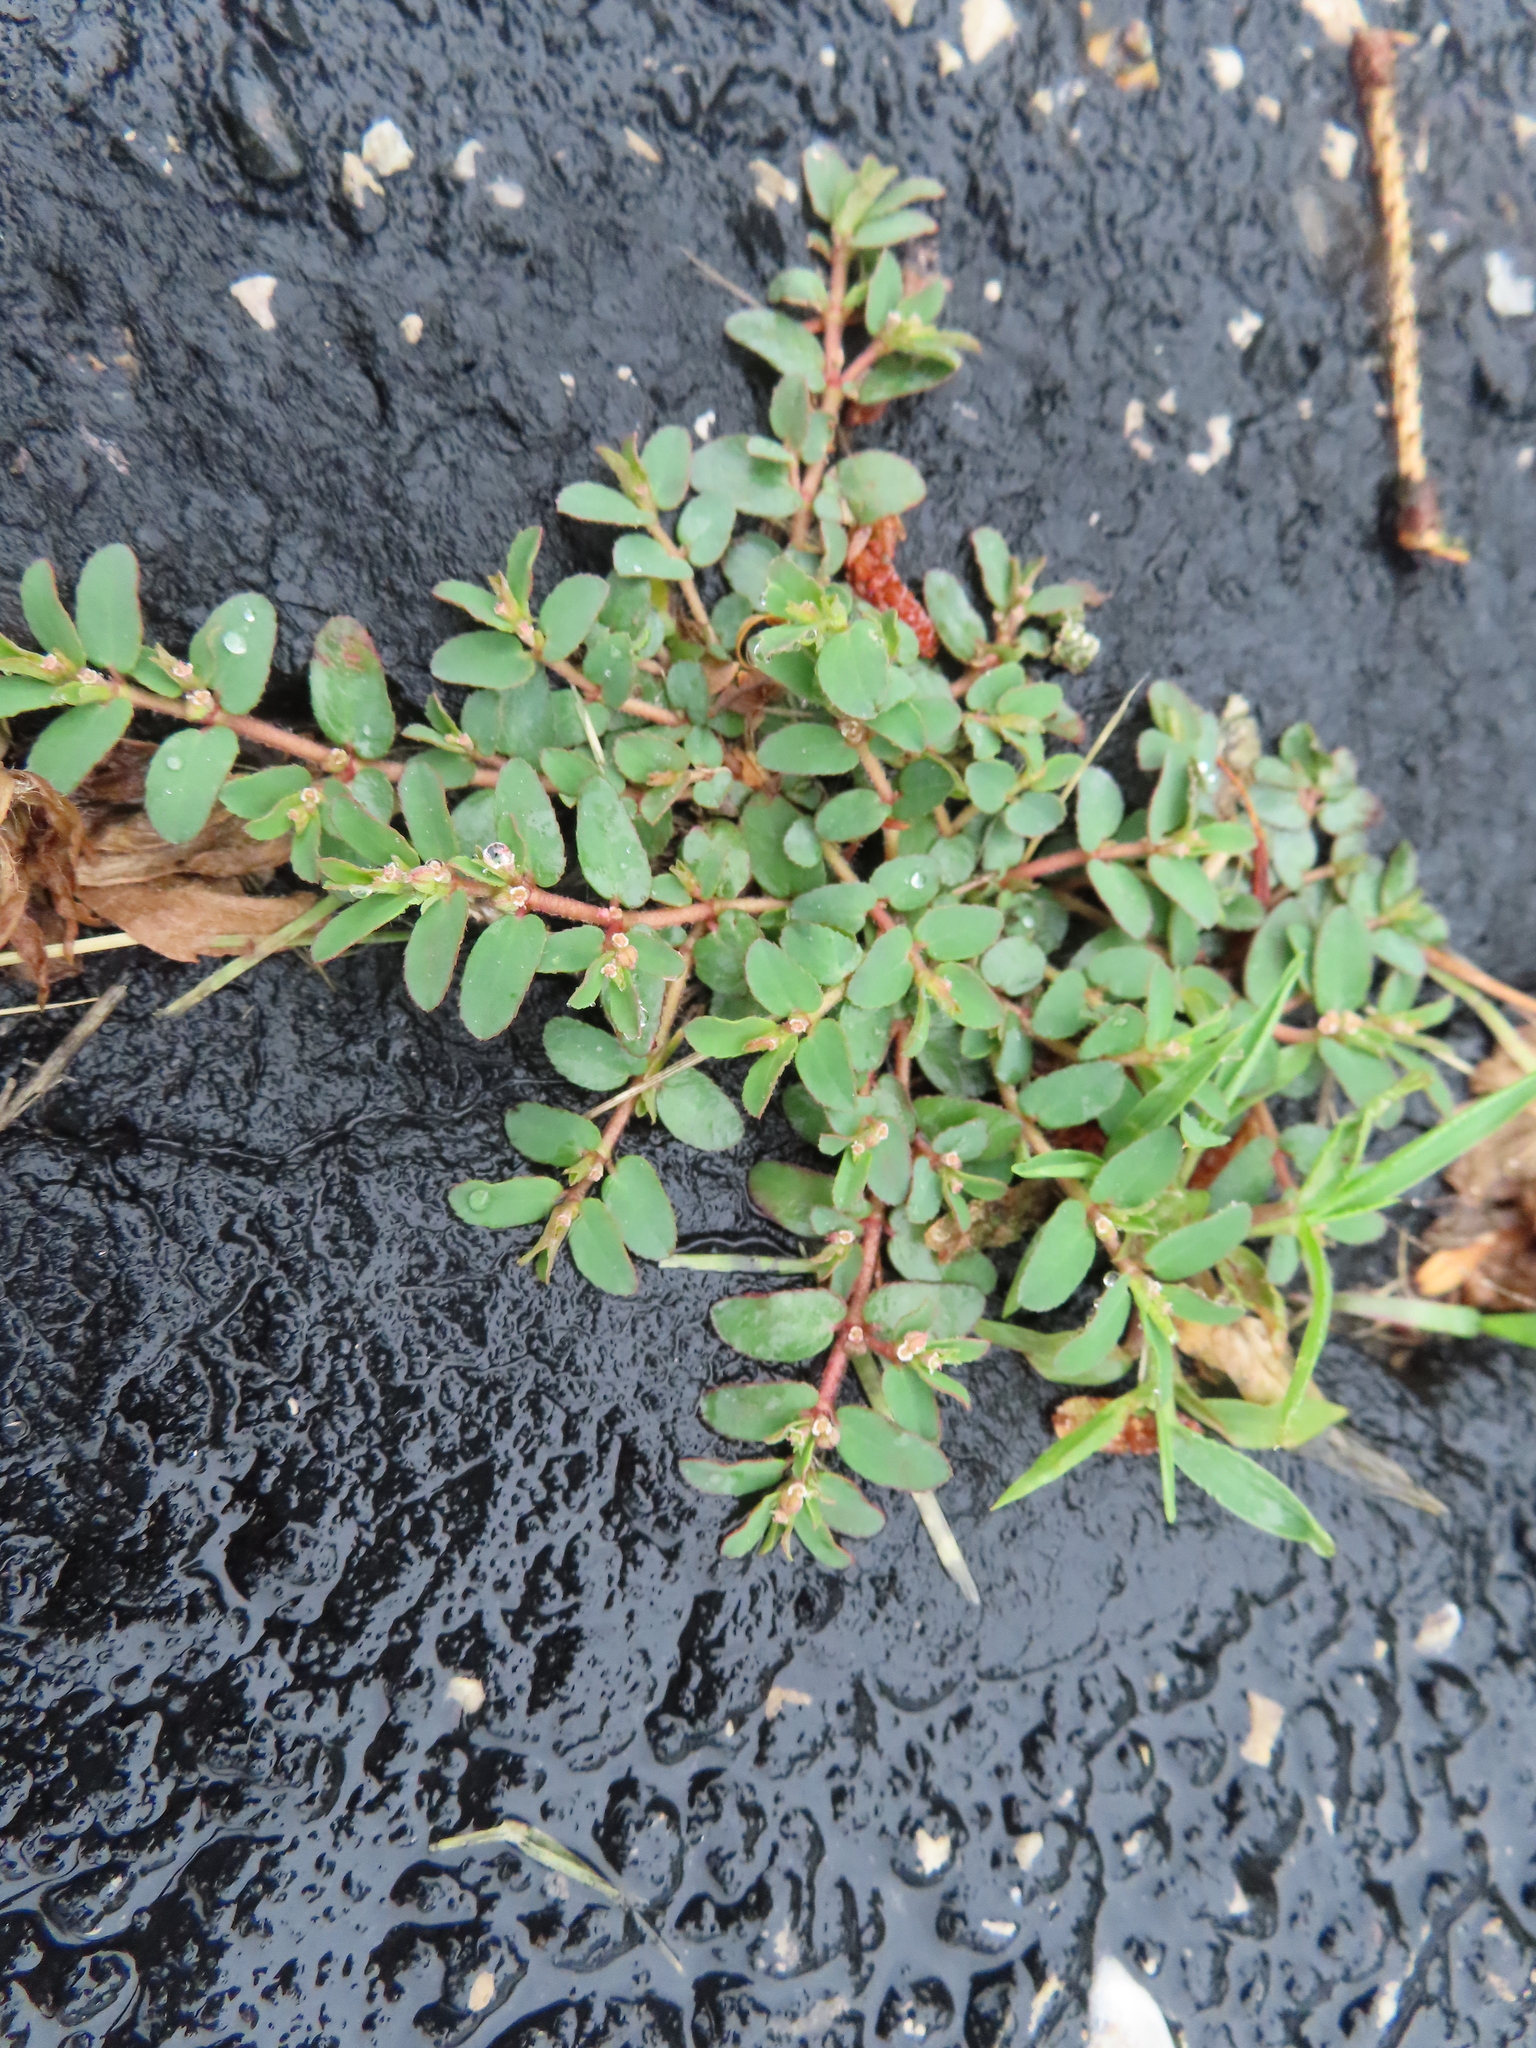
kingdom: Plantae
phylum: Tracheophyta
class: Magnoliopsida
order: Malpighiales
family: Euphorbiaceae
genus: Euphorbia
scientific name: Euphorbia maculata
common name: Spotted spurge
